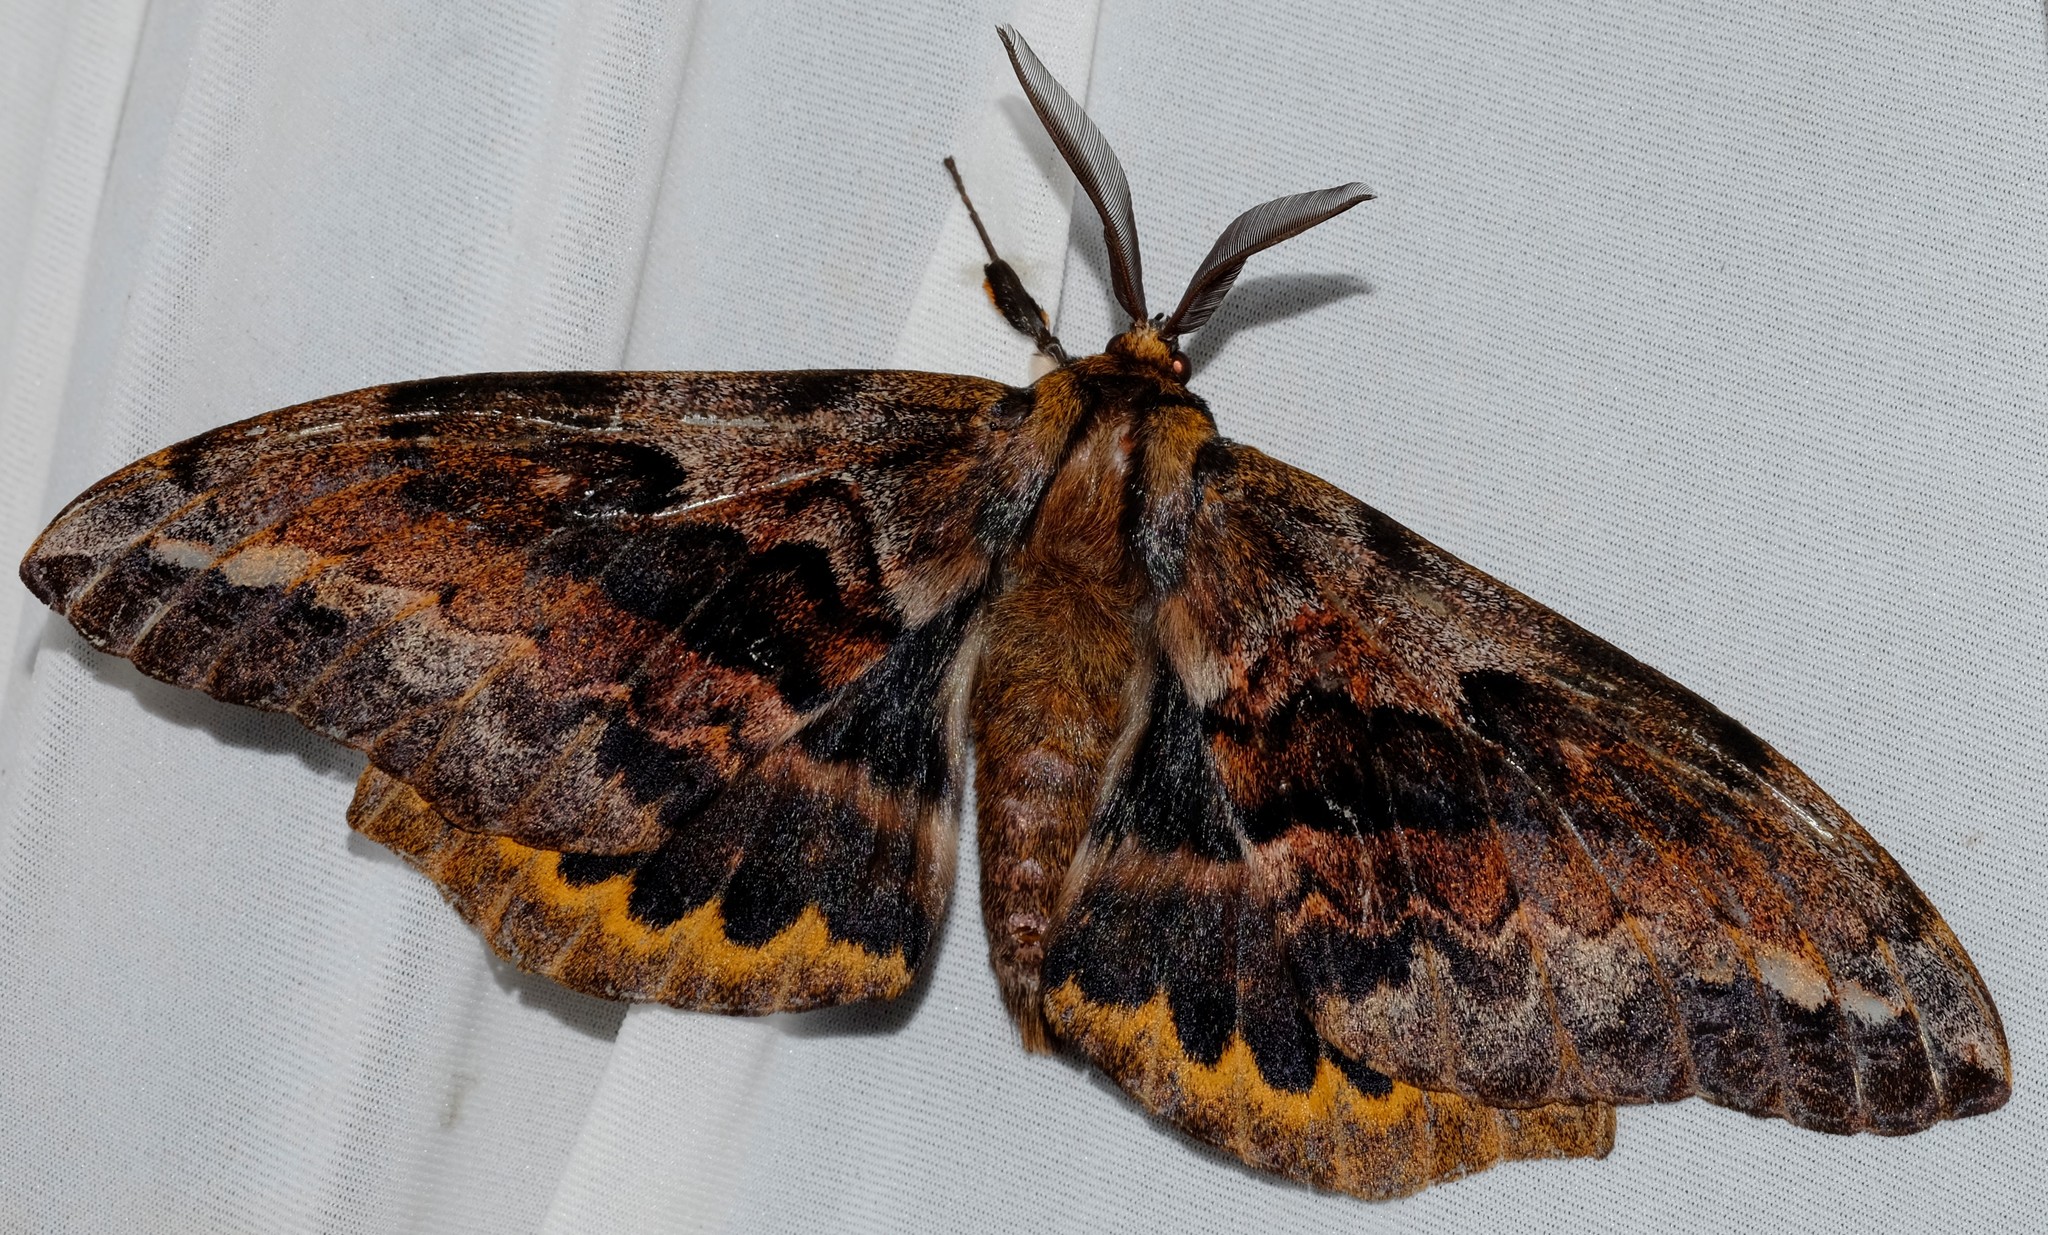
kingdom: Animalia
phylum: Arthropoda
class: Insecta
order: Lepidoptera
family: Anthelidae
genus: Chelepteryx
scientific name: Chelepteryx collesi
